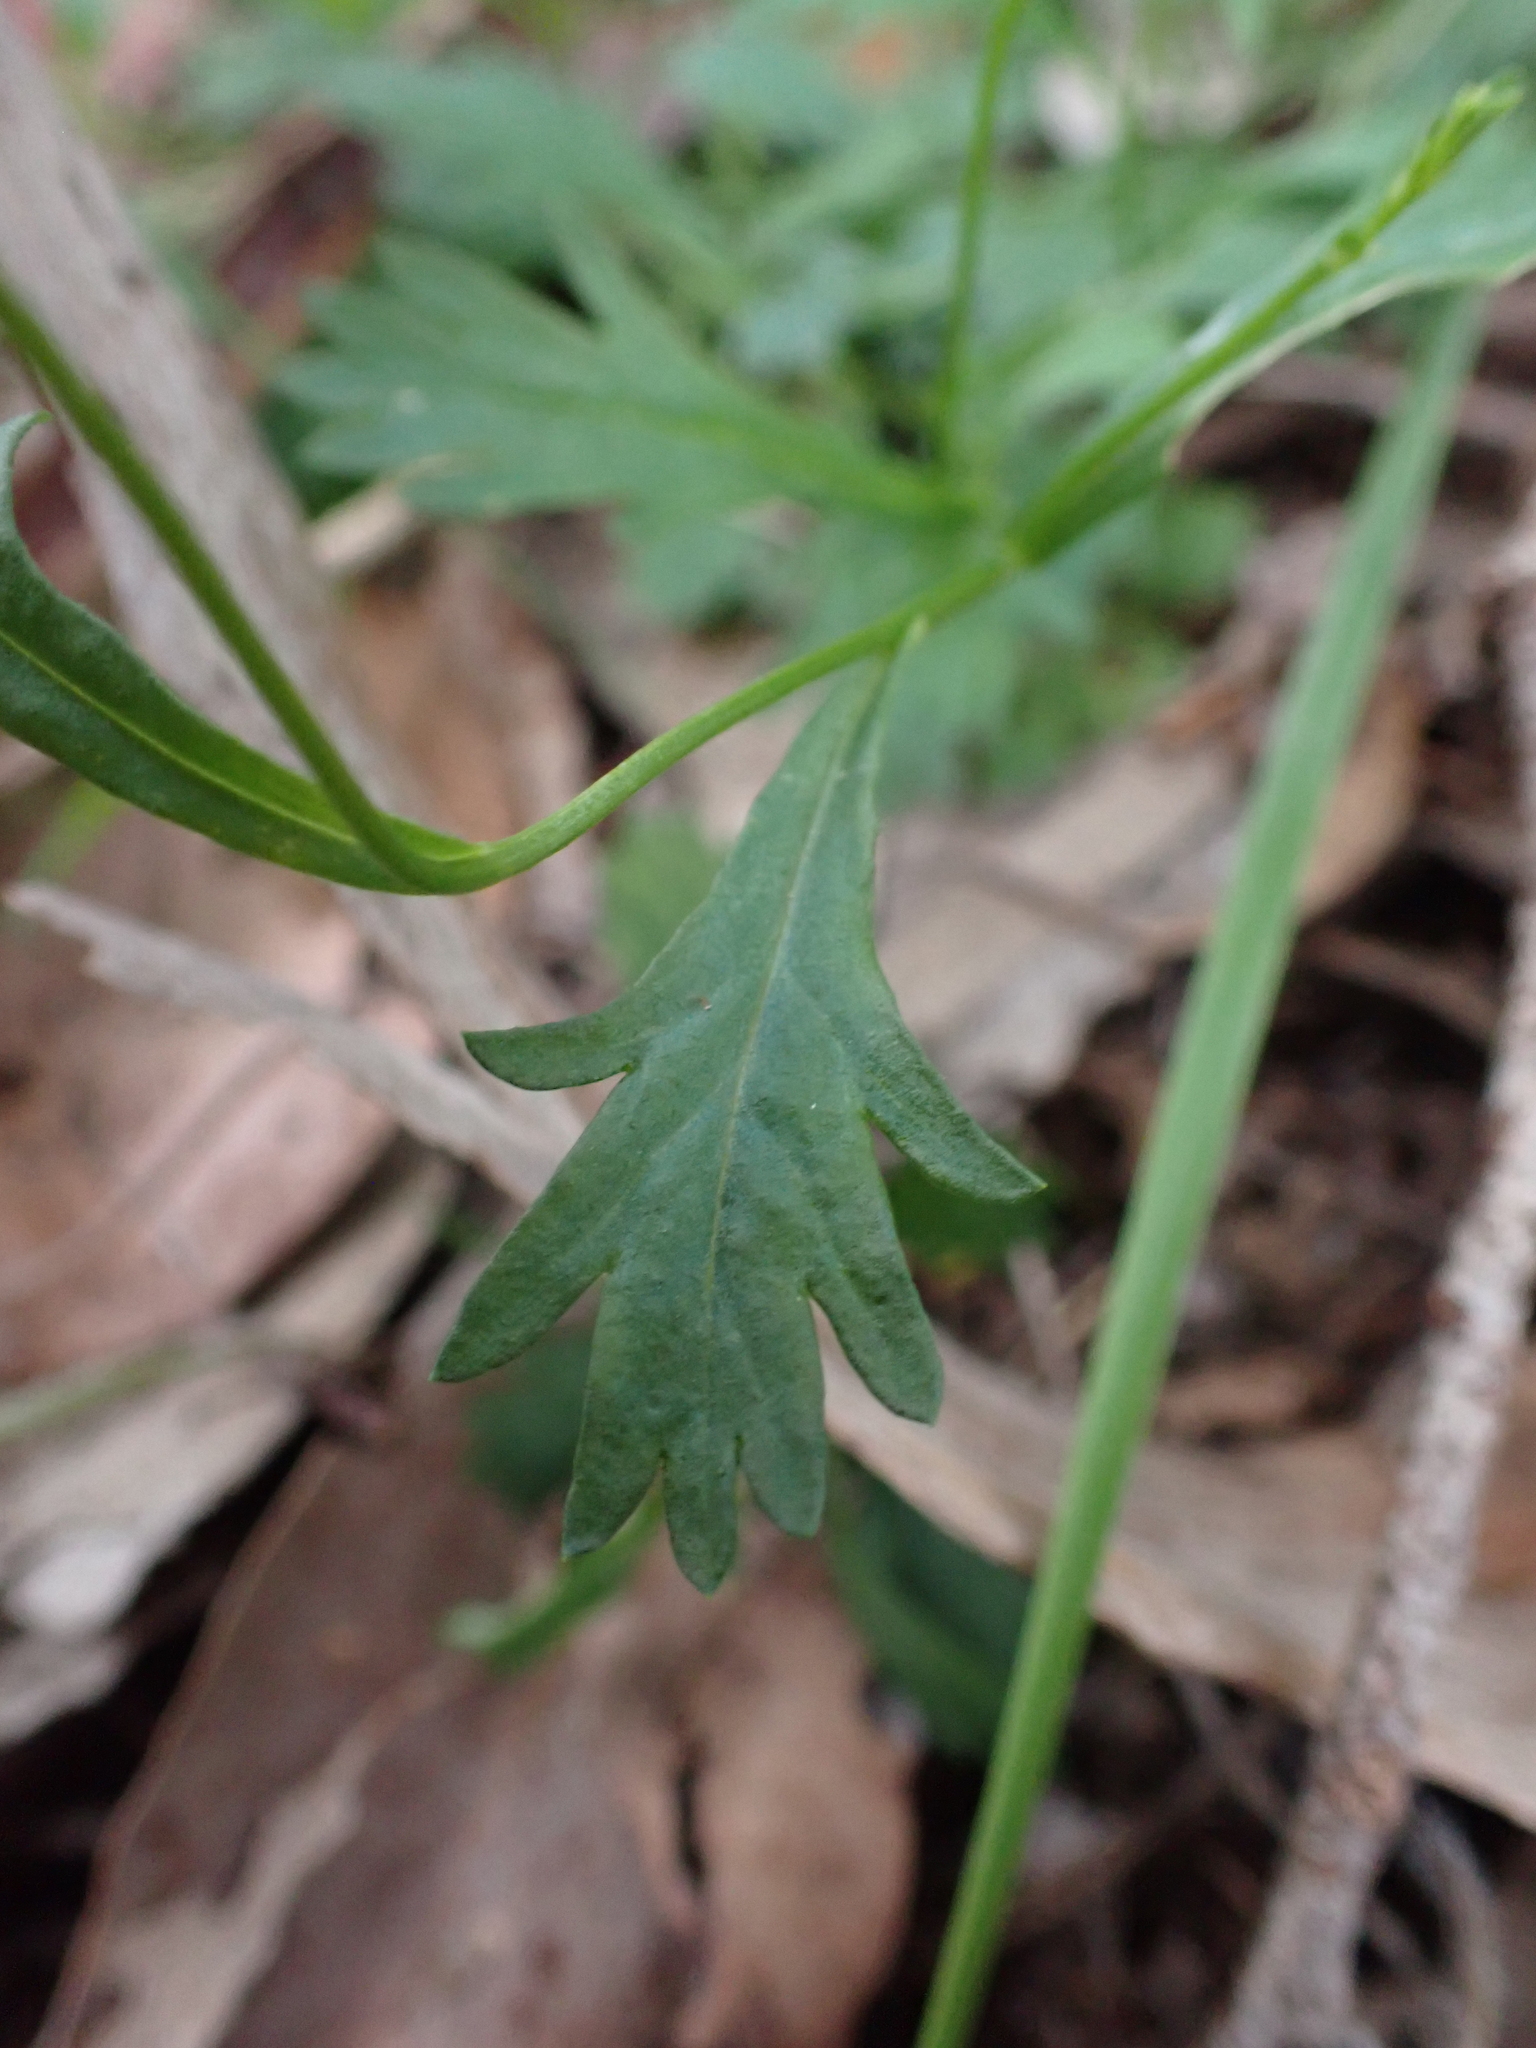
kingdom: Plantae
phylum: Tracheophyta
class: Magnoliopsida
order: Asterales
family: Asteraceae
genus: Brachyscome
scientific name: Brachyscome salkiniae
